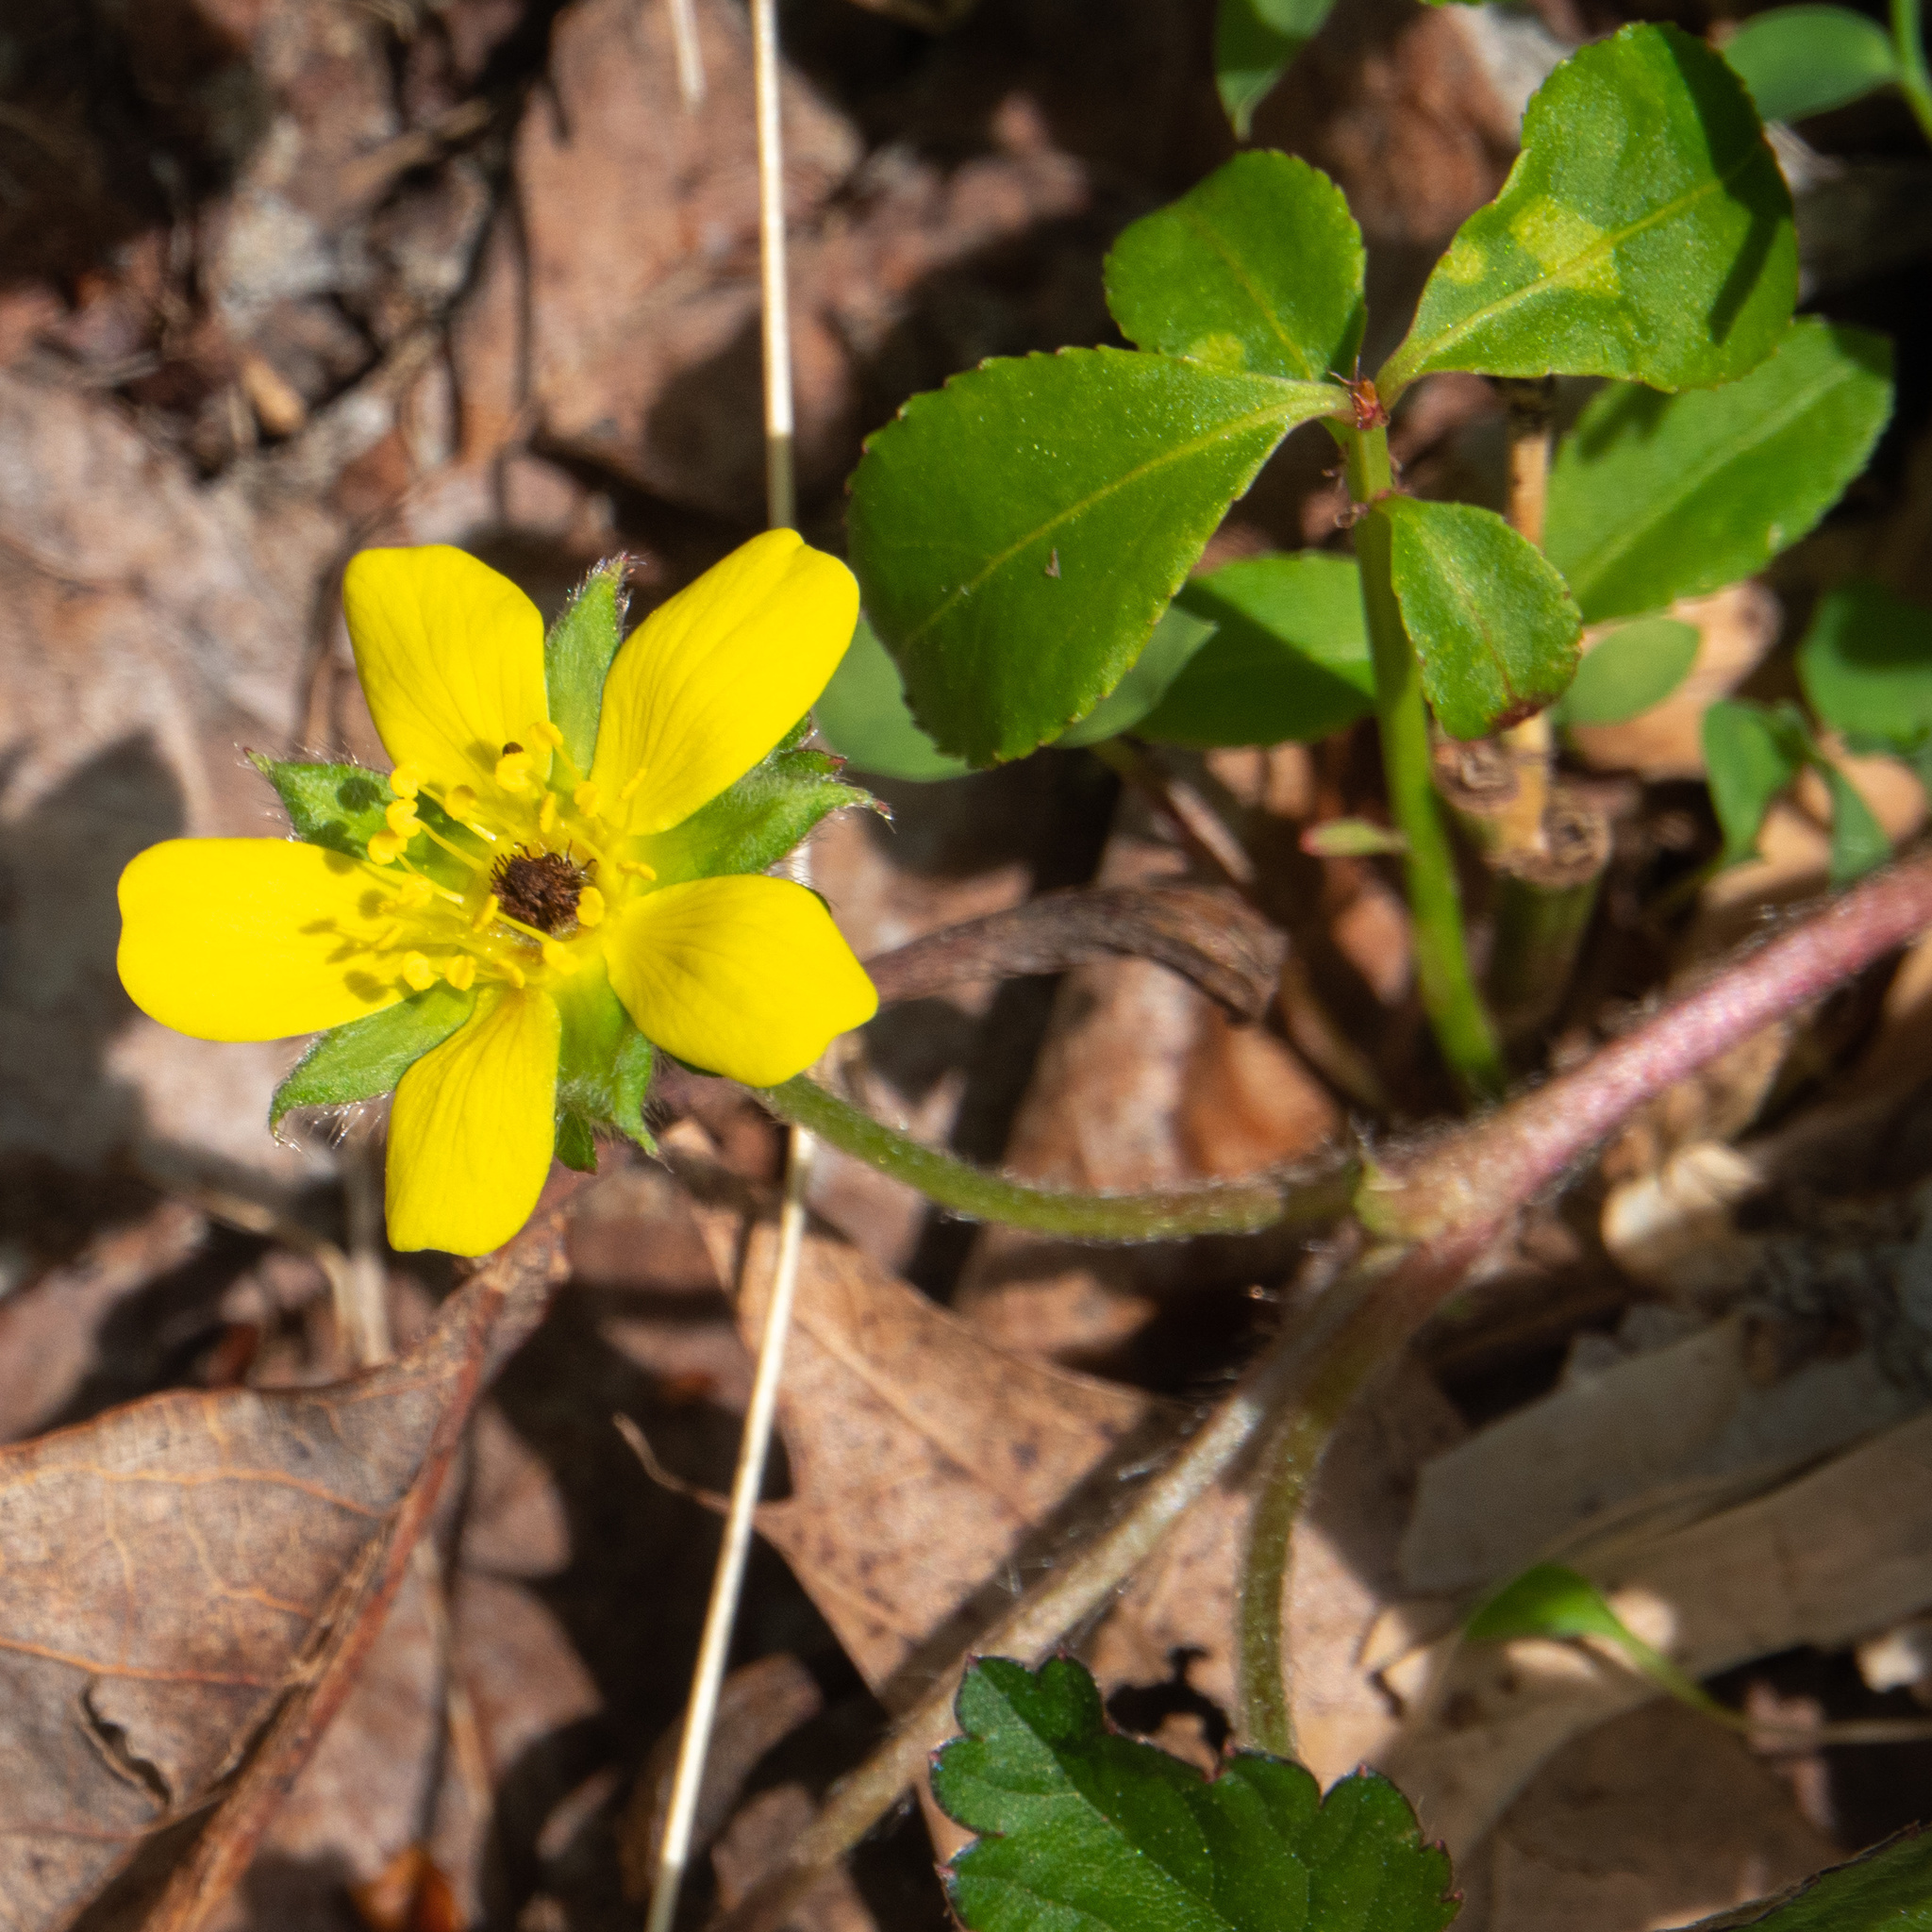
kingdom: Plantae
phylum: Tracheophyta
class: Magnoliopsida
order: Rosales
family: Rosaceae
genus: Potentilla
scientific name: Potentilla indica
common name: Yellow-flowered strawberry
